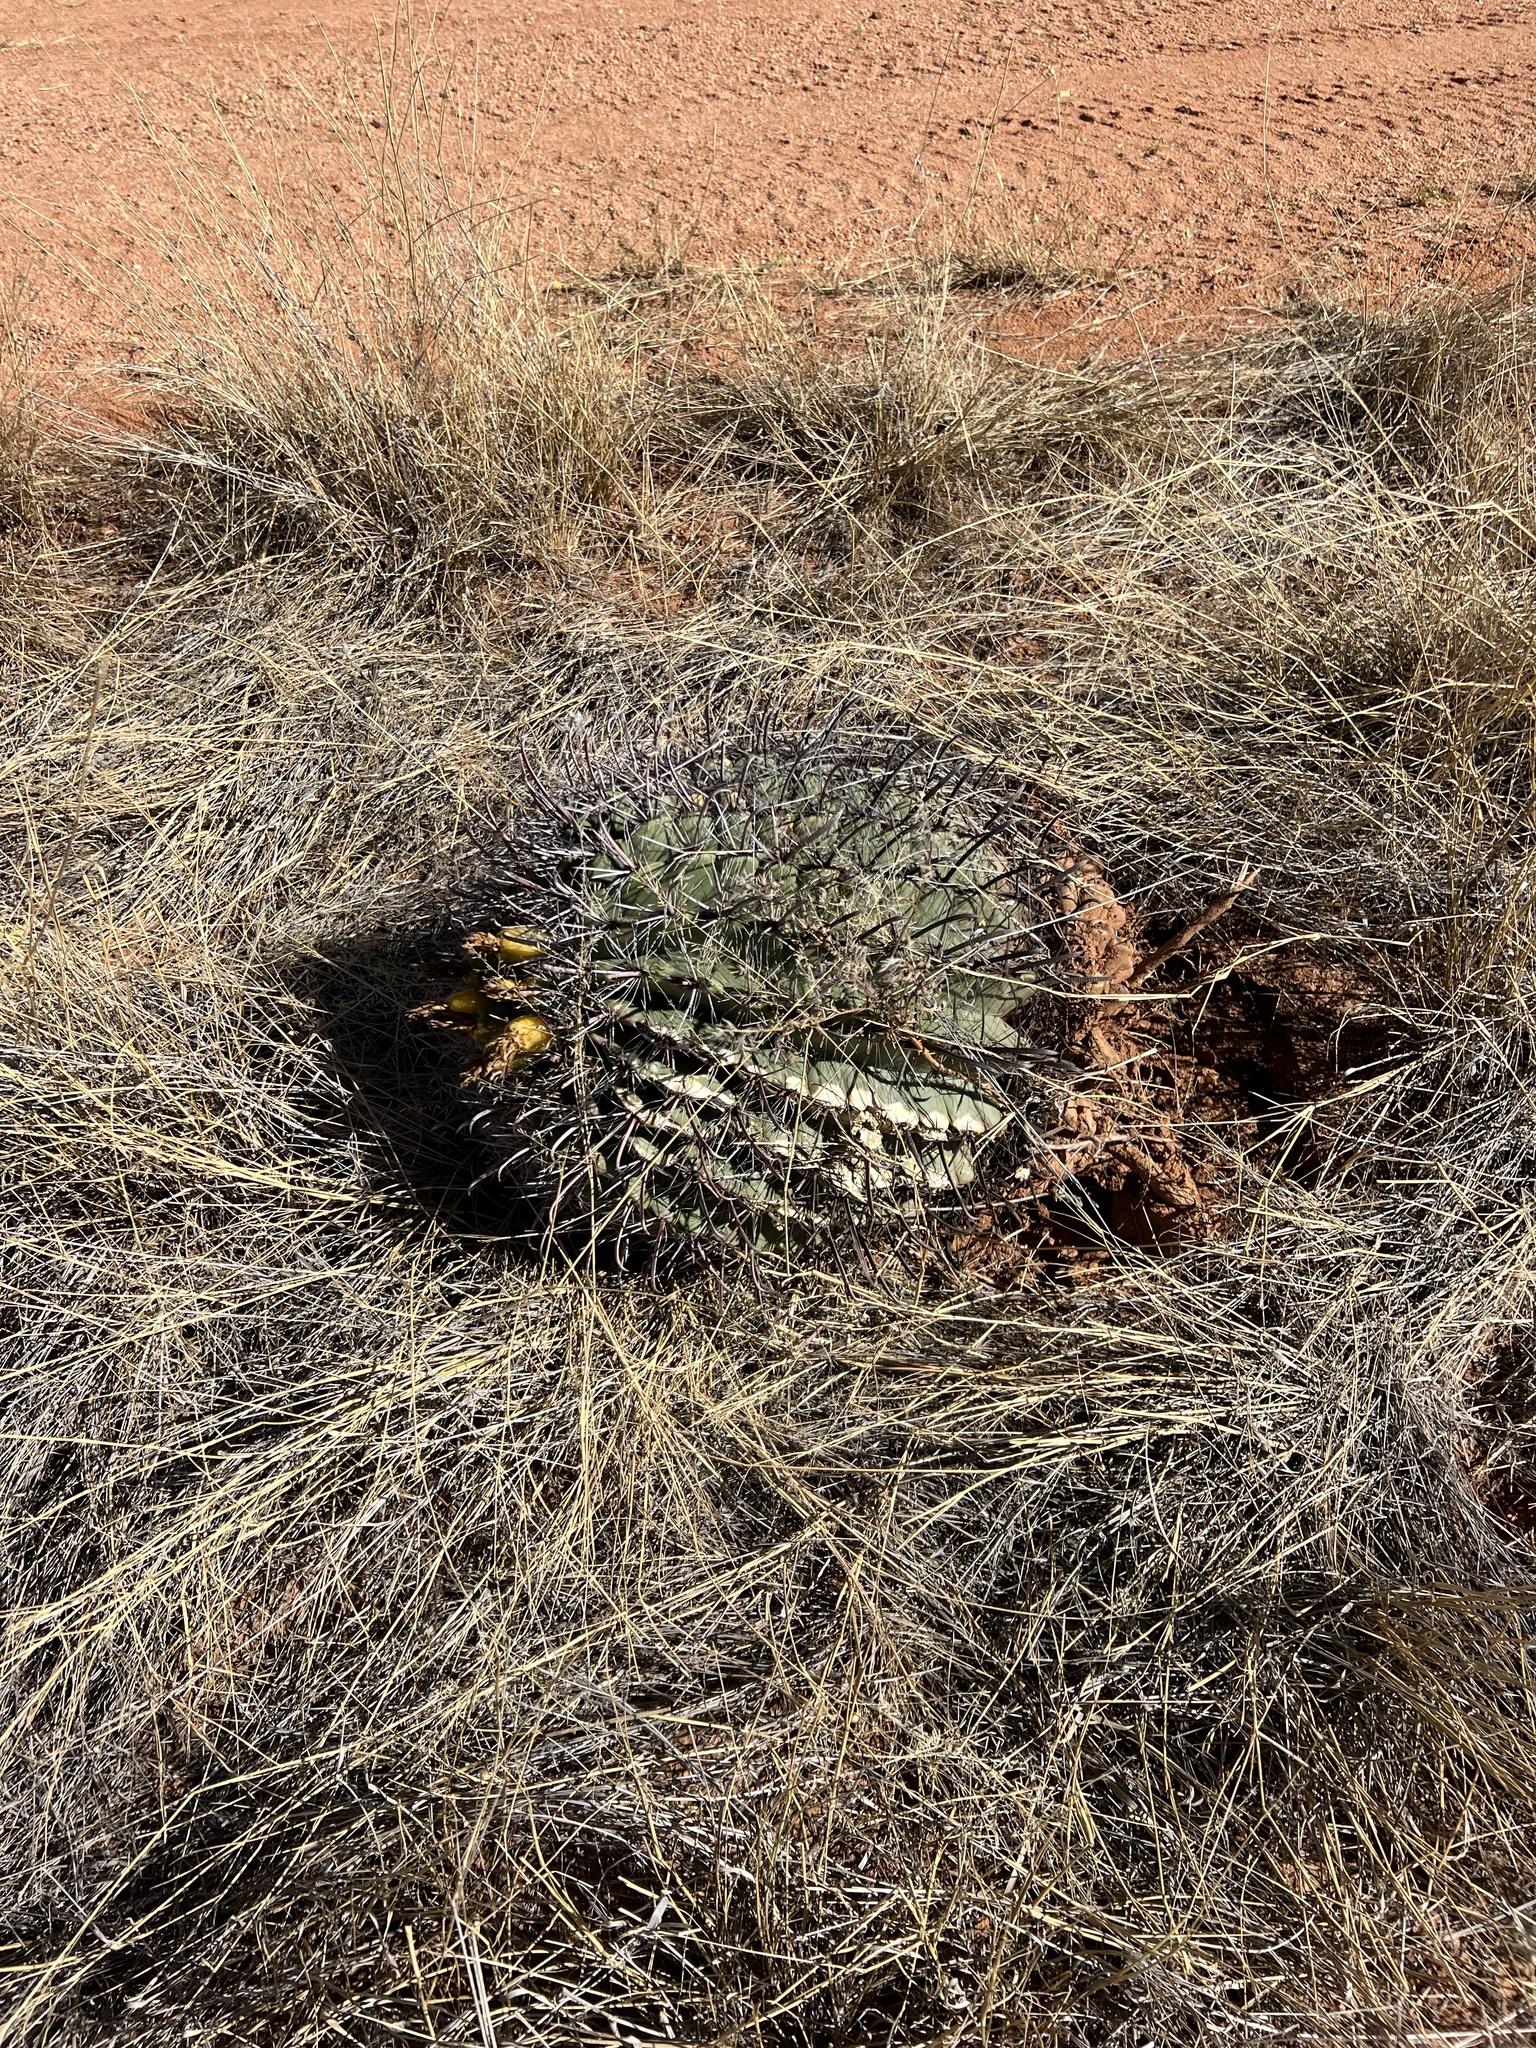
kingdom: Plantae
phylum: Tracheophyta
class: Magnoliopsida
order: Caryophyllales
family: Cactaceae
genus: Ferocactus
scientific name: Ferocactus wislizeni
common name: Candy barrel cactus
